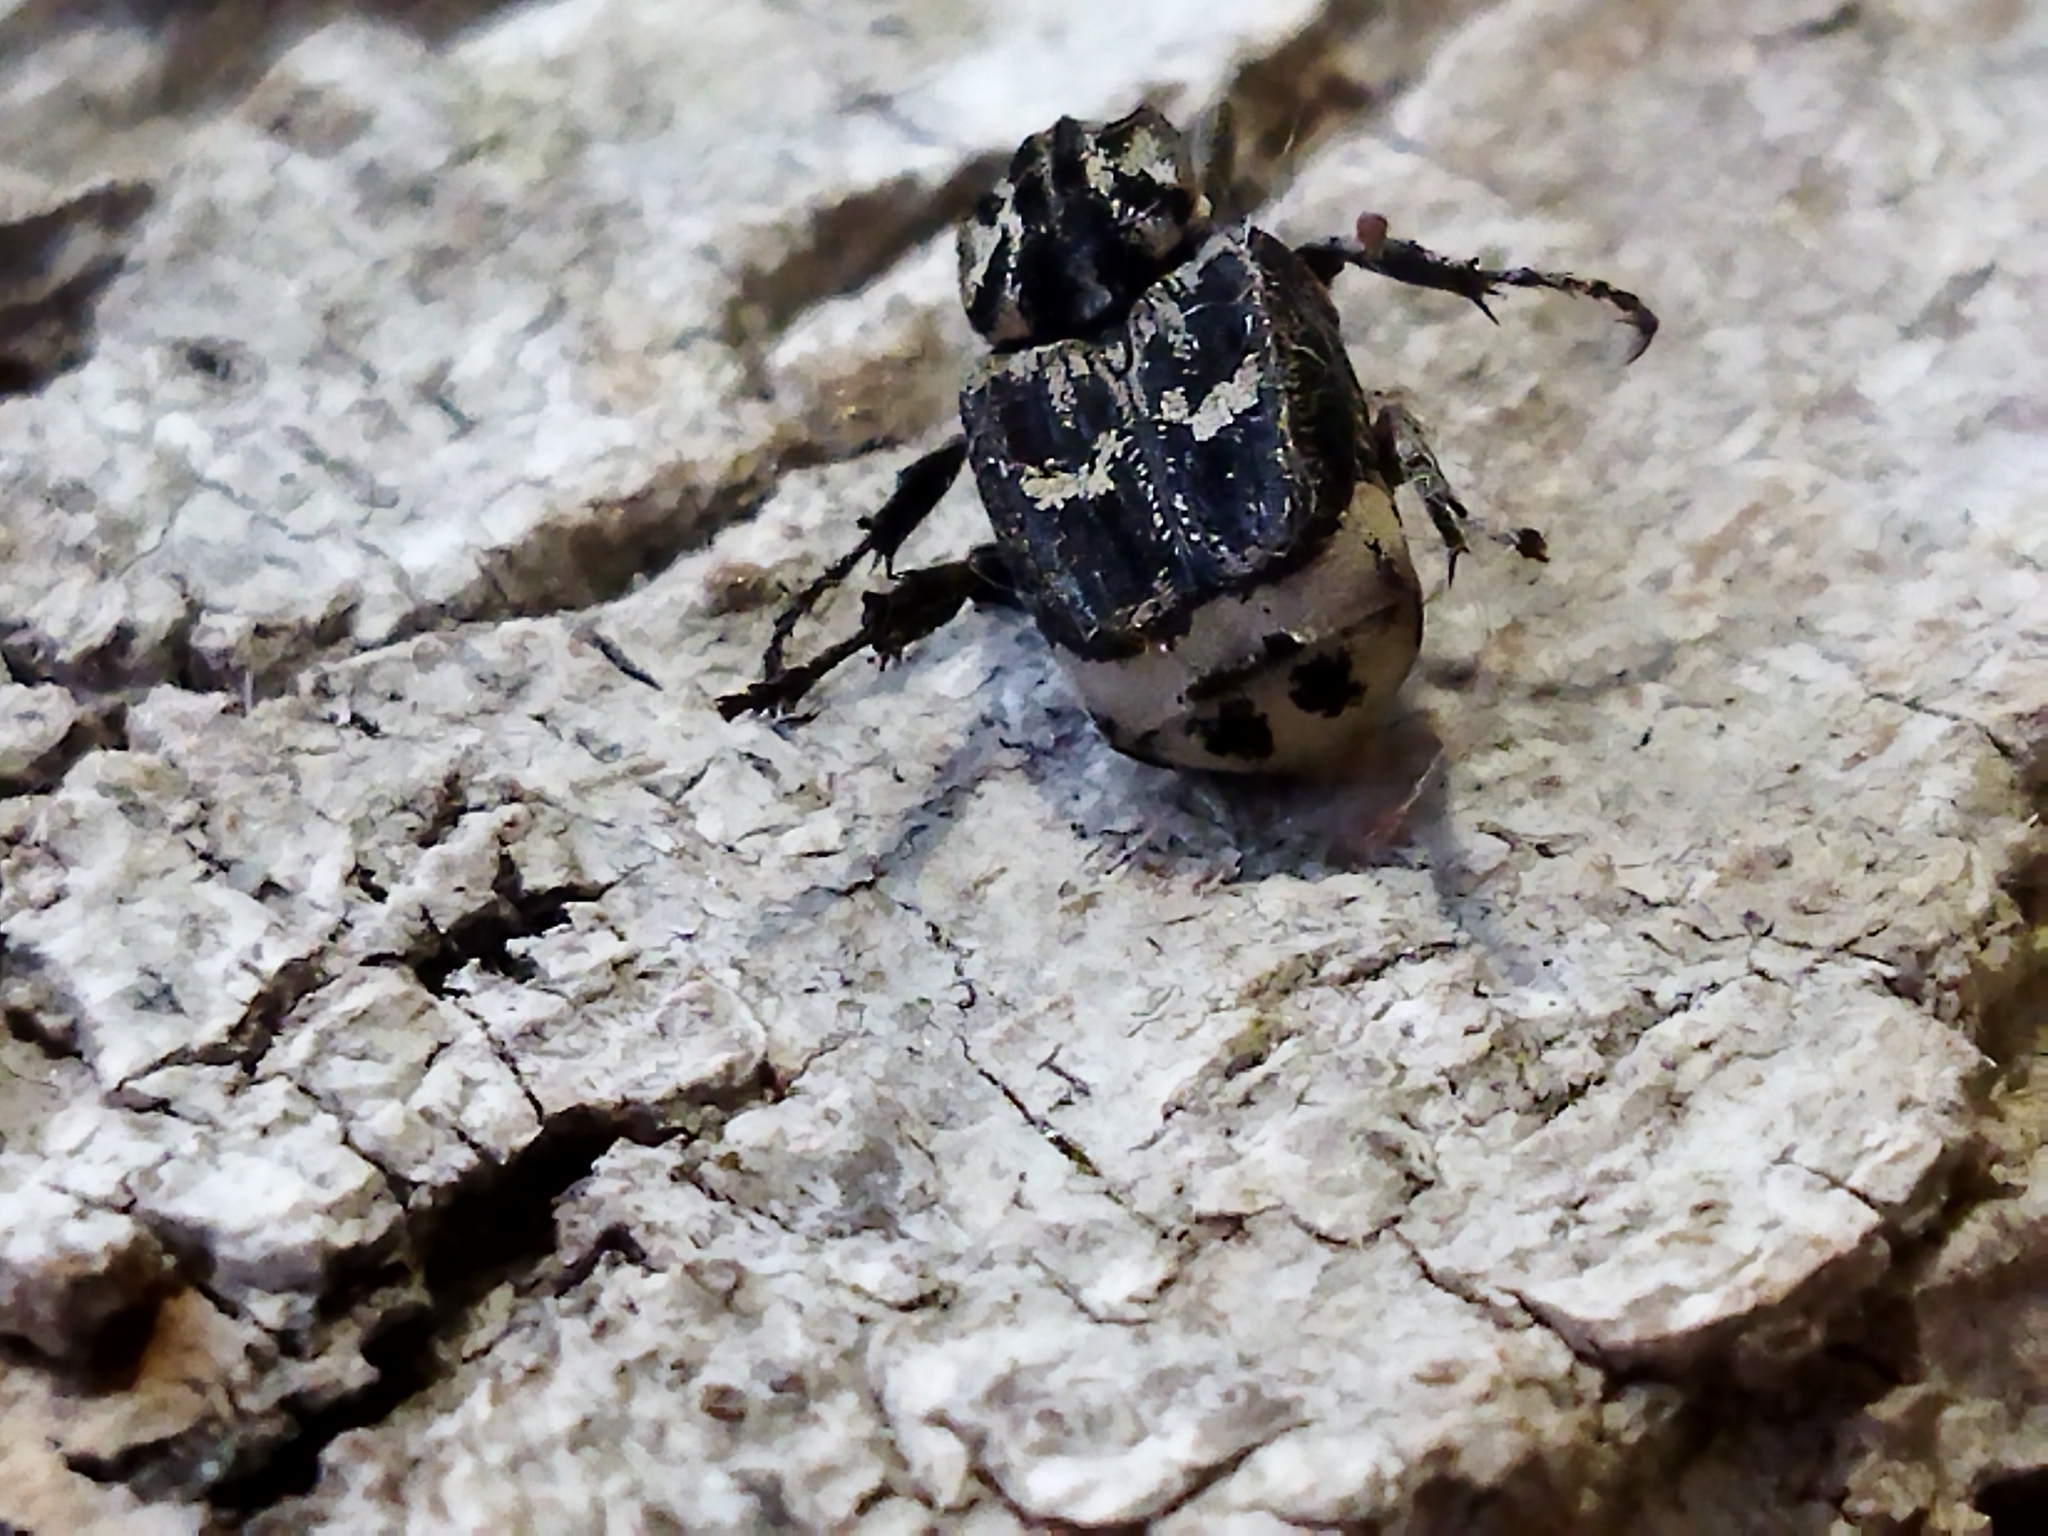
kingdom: Animalia
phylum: Arthropoda
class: Insecta
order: Coleoptera
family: Scarabaeidae
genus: Valgus
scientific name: Valgus hemipterus
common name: Bug flower chafer
